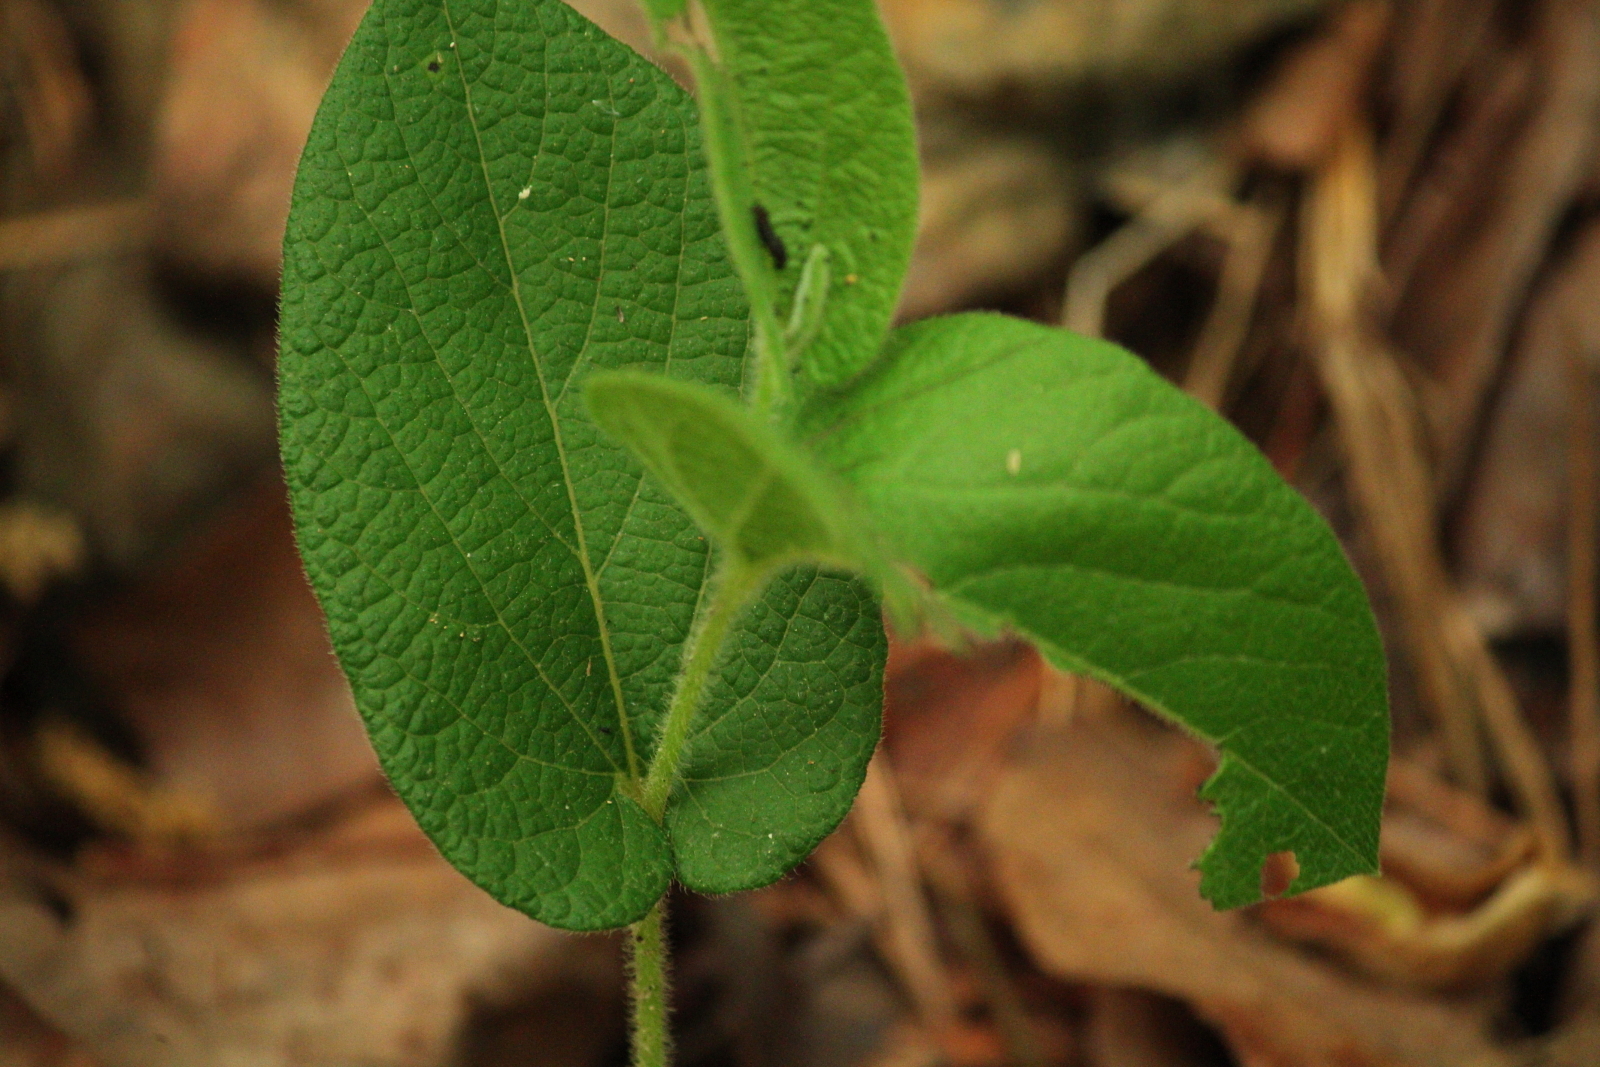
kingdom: Plantae
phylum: Tracheophyta
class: Magnoliopsida
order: Piperales
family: Aristolochiaceae
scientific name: Aristolochiaceae
